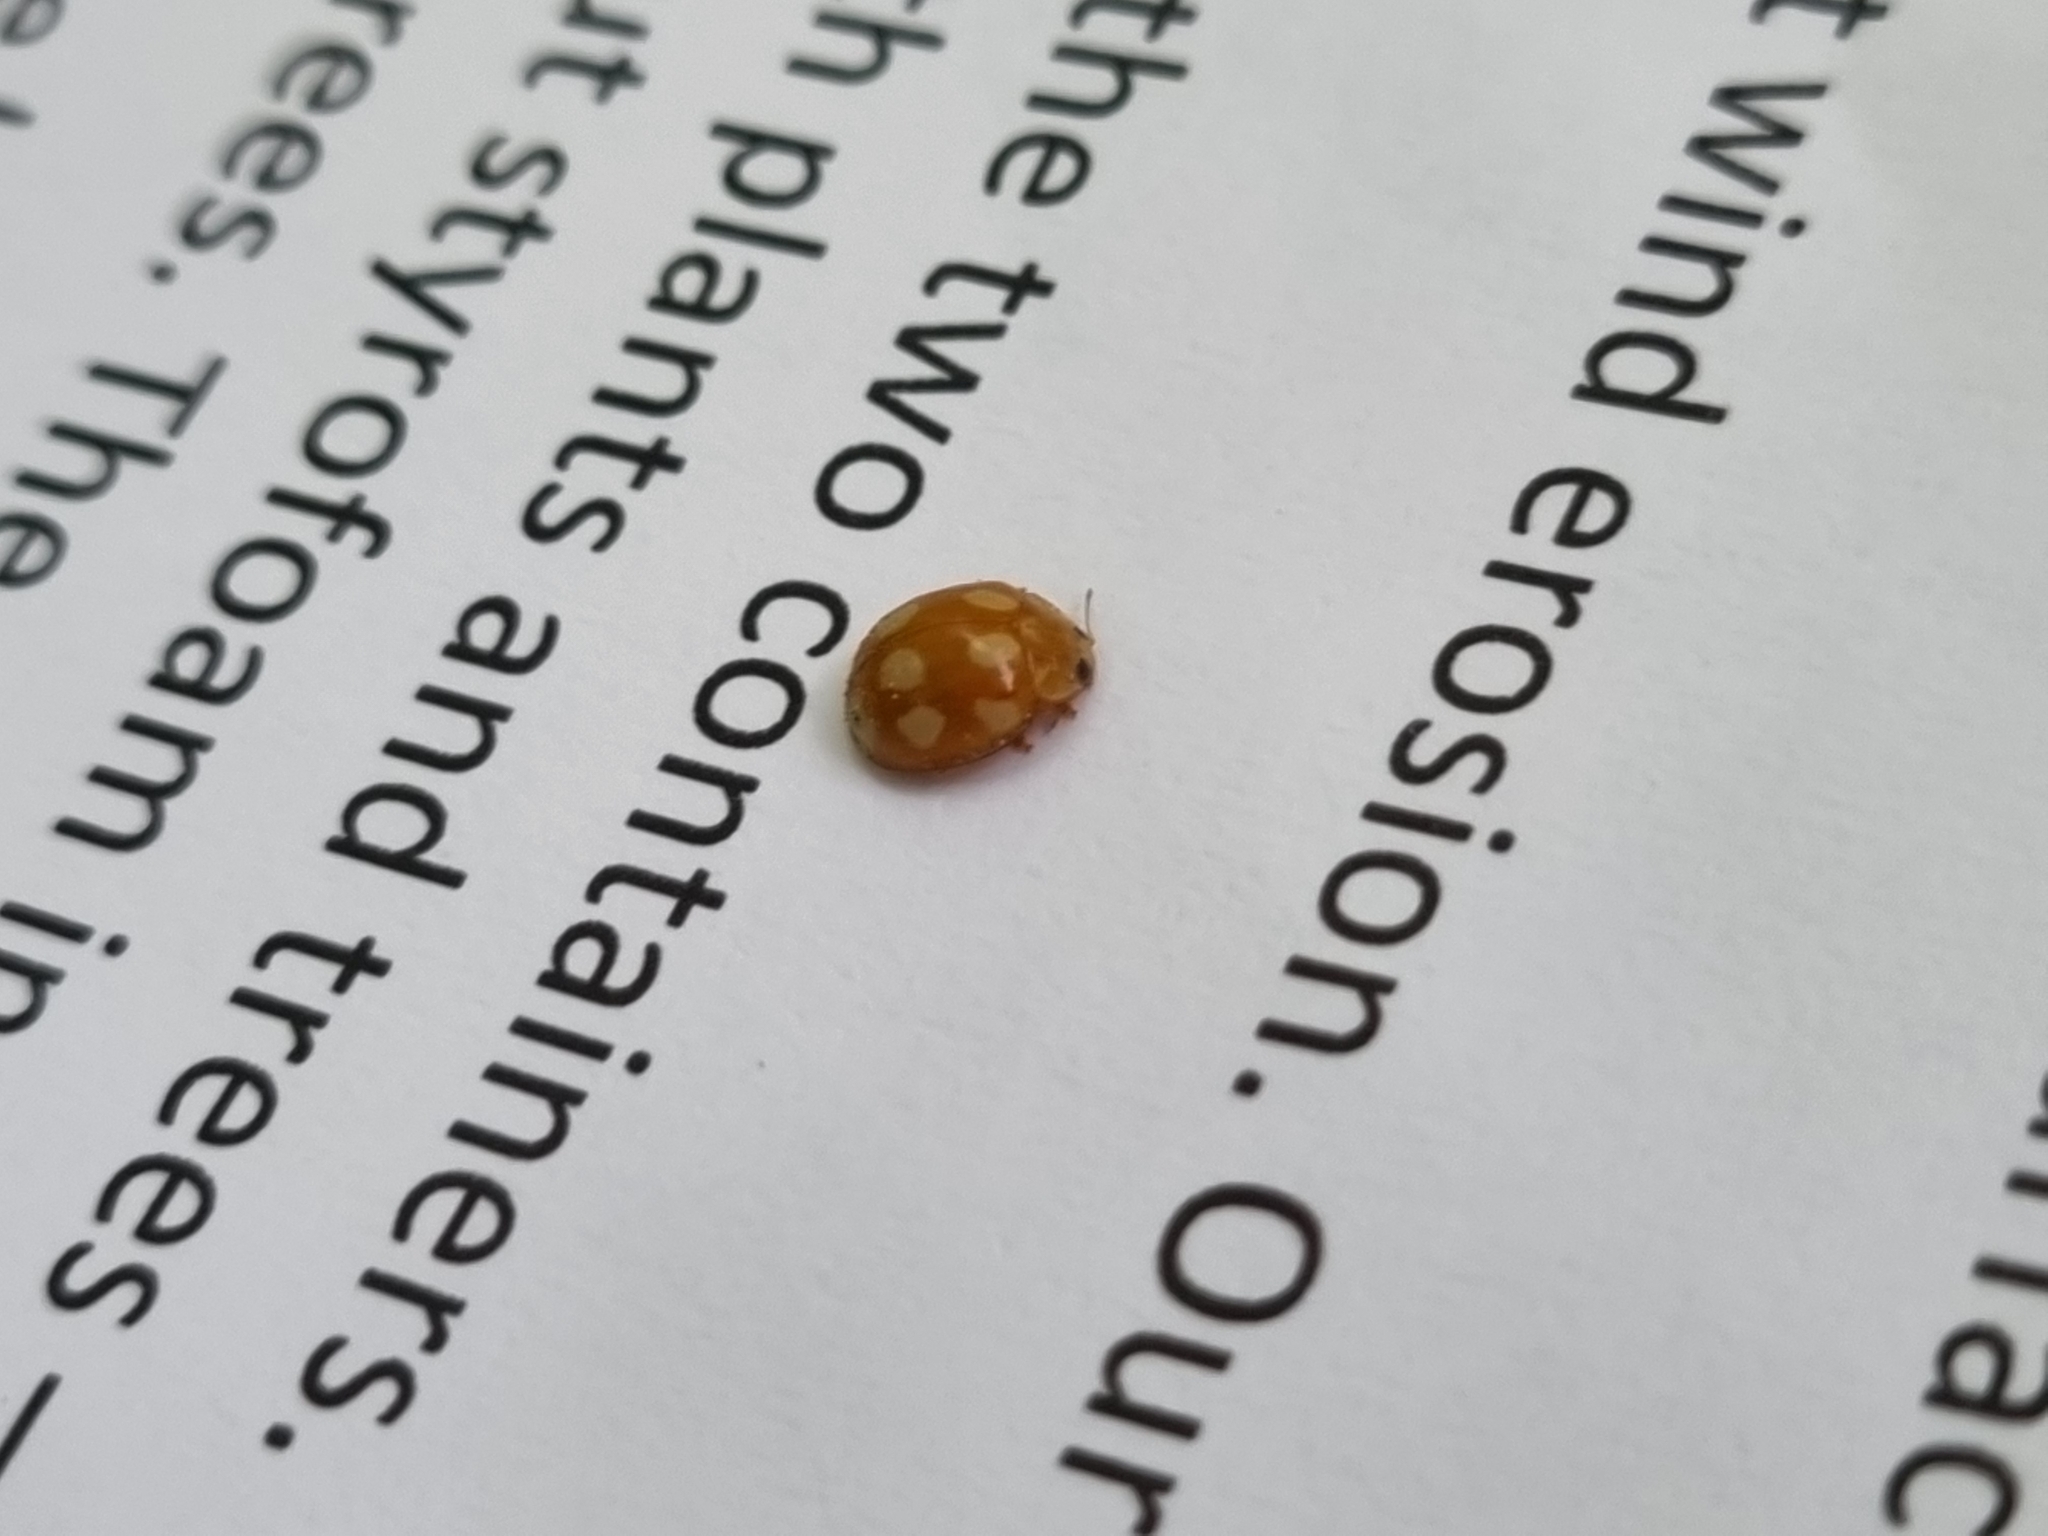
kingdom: Animalia
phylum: Arthropoda
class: Insecta
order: Coleoptera
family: Coccinellidae
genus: Calvia
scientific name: Calvia decemguttata
